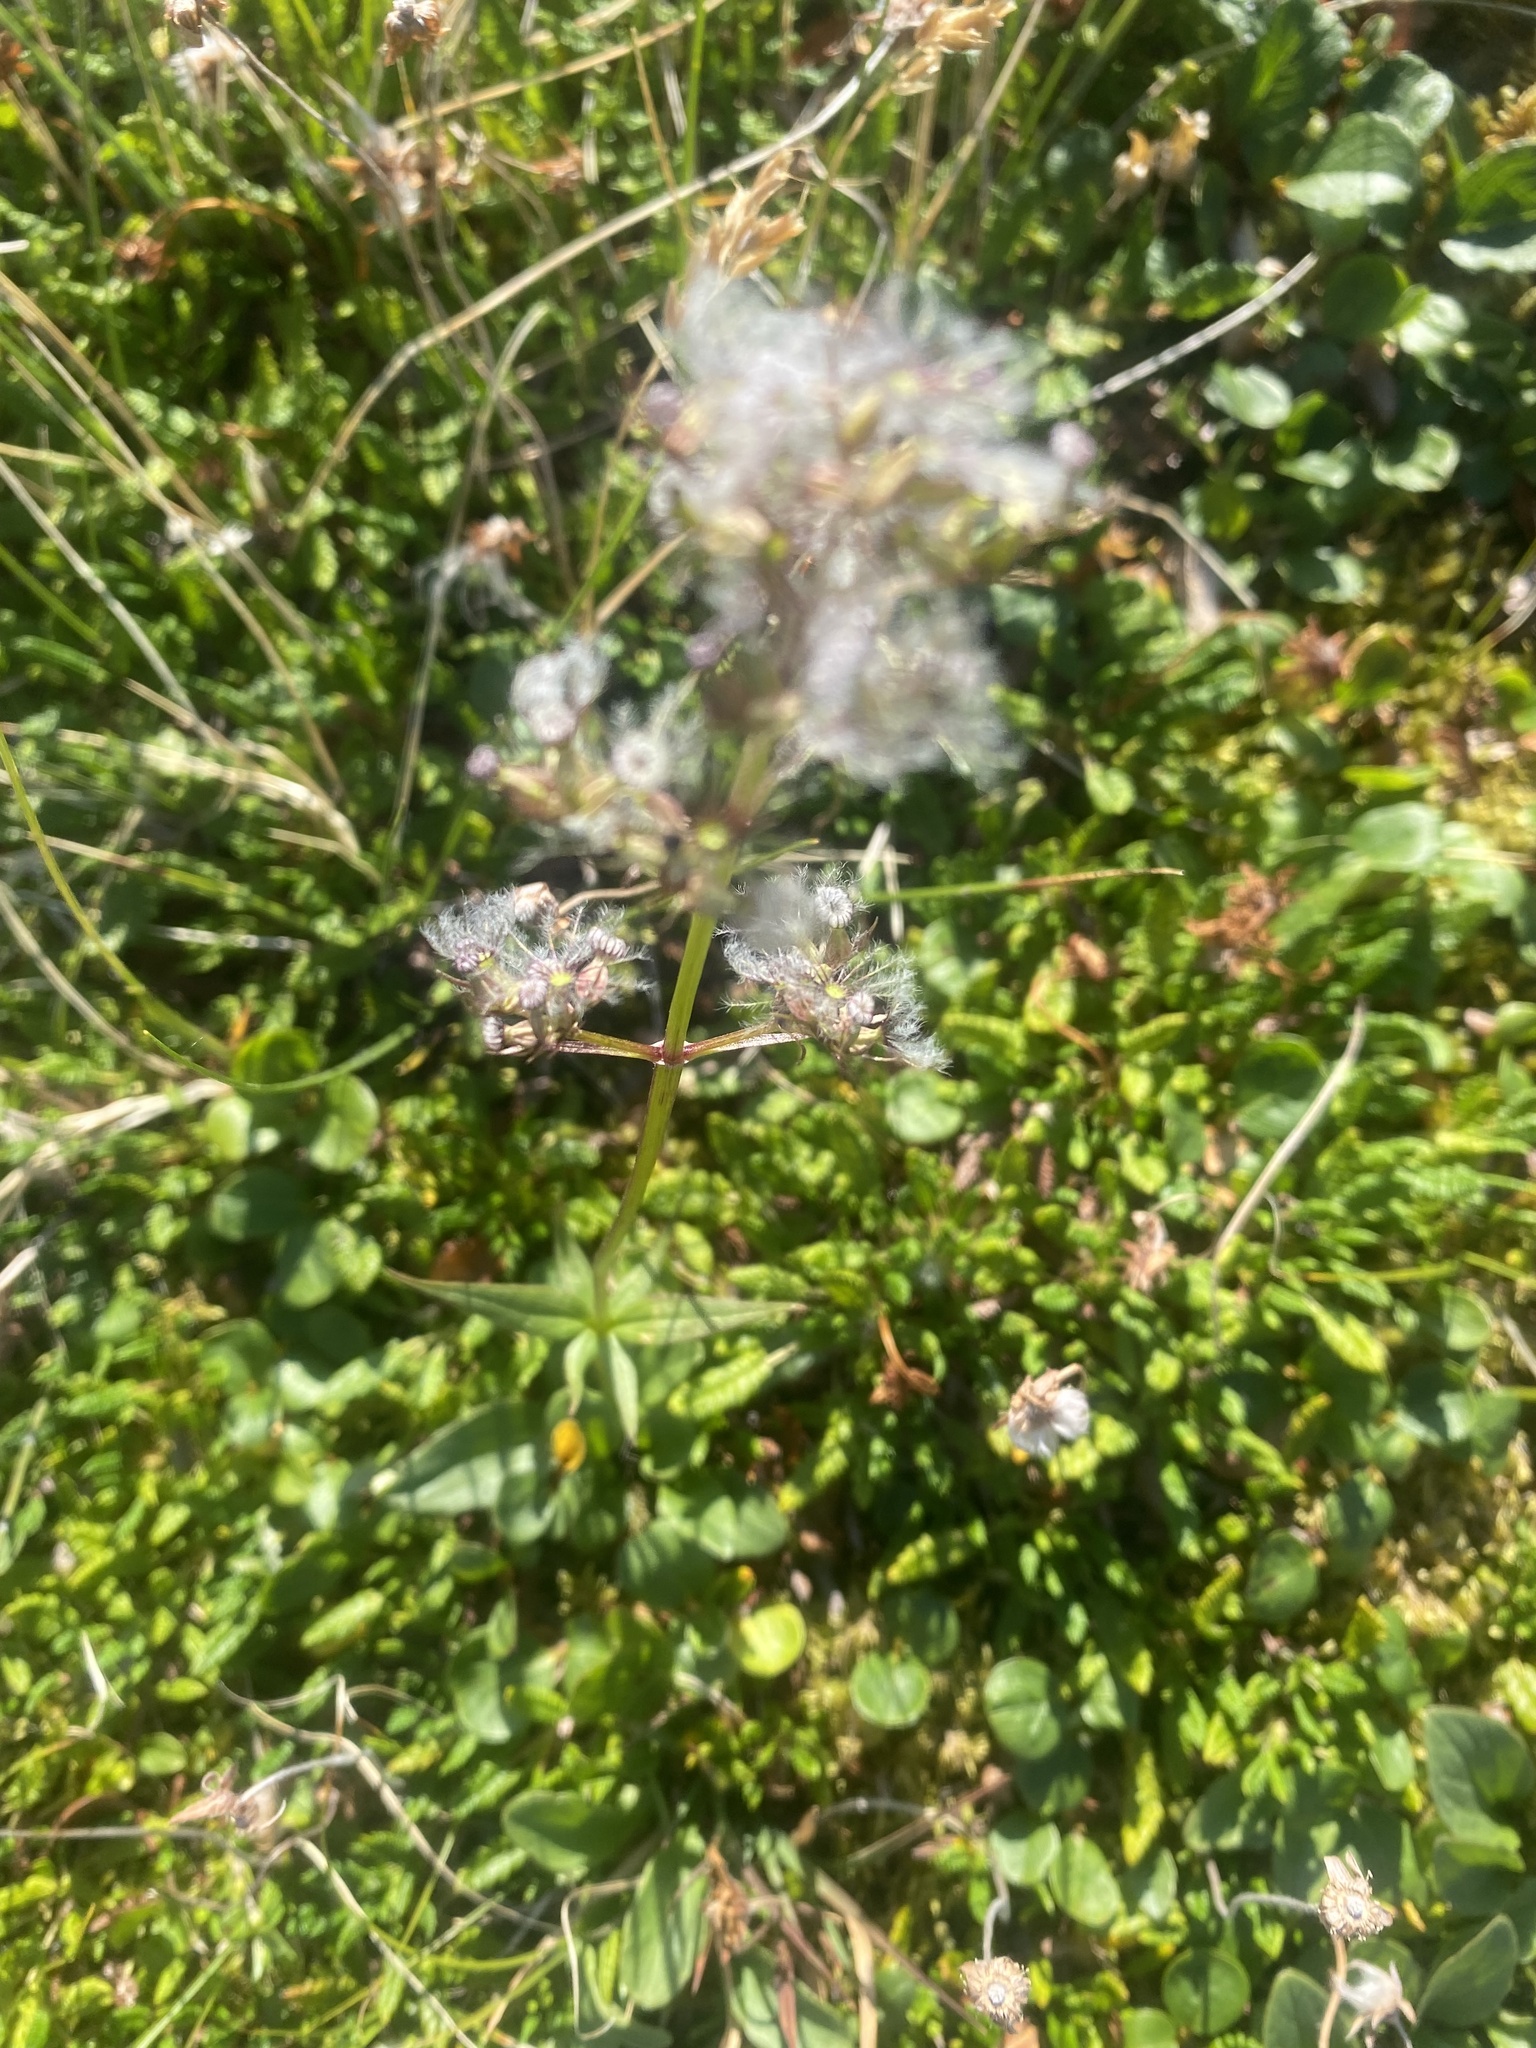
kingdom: Plantae
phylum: Tracheophyta
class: Magnoliopsida
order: Dipsacales
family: Caprifoliaceae
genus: Valeriana
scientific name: Valeriana capitata
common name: Capitate valerian
